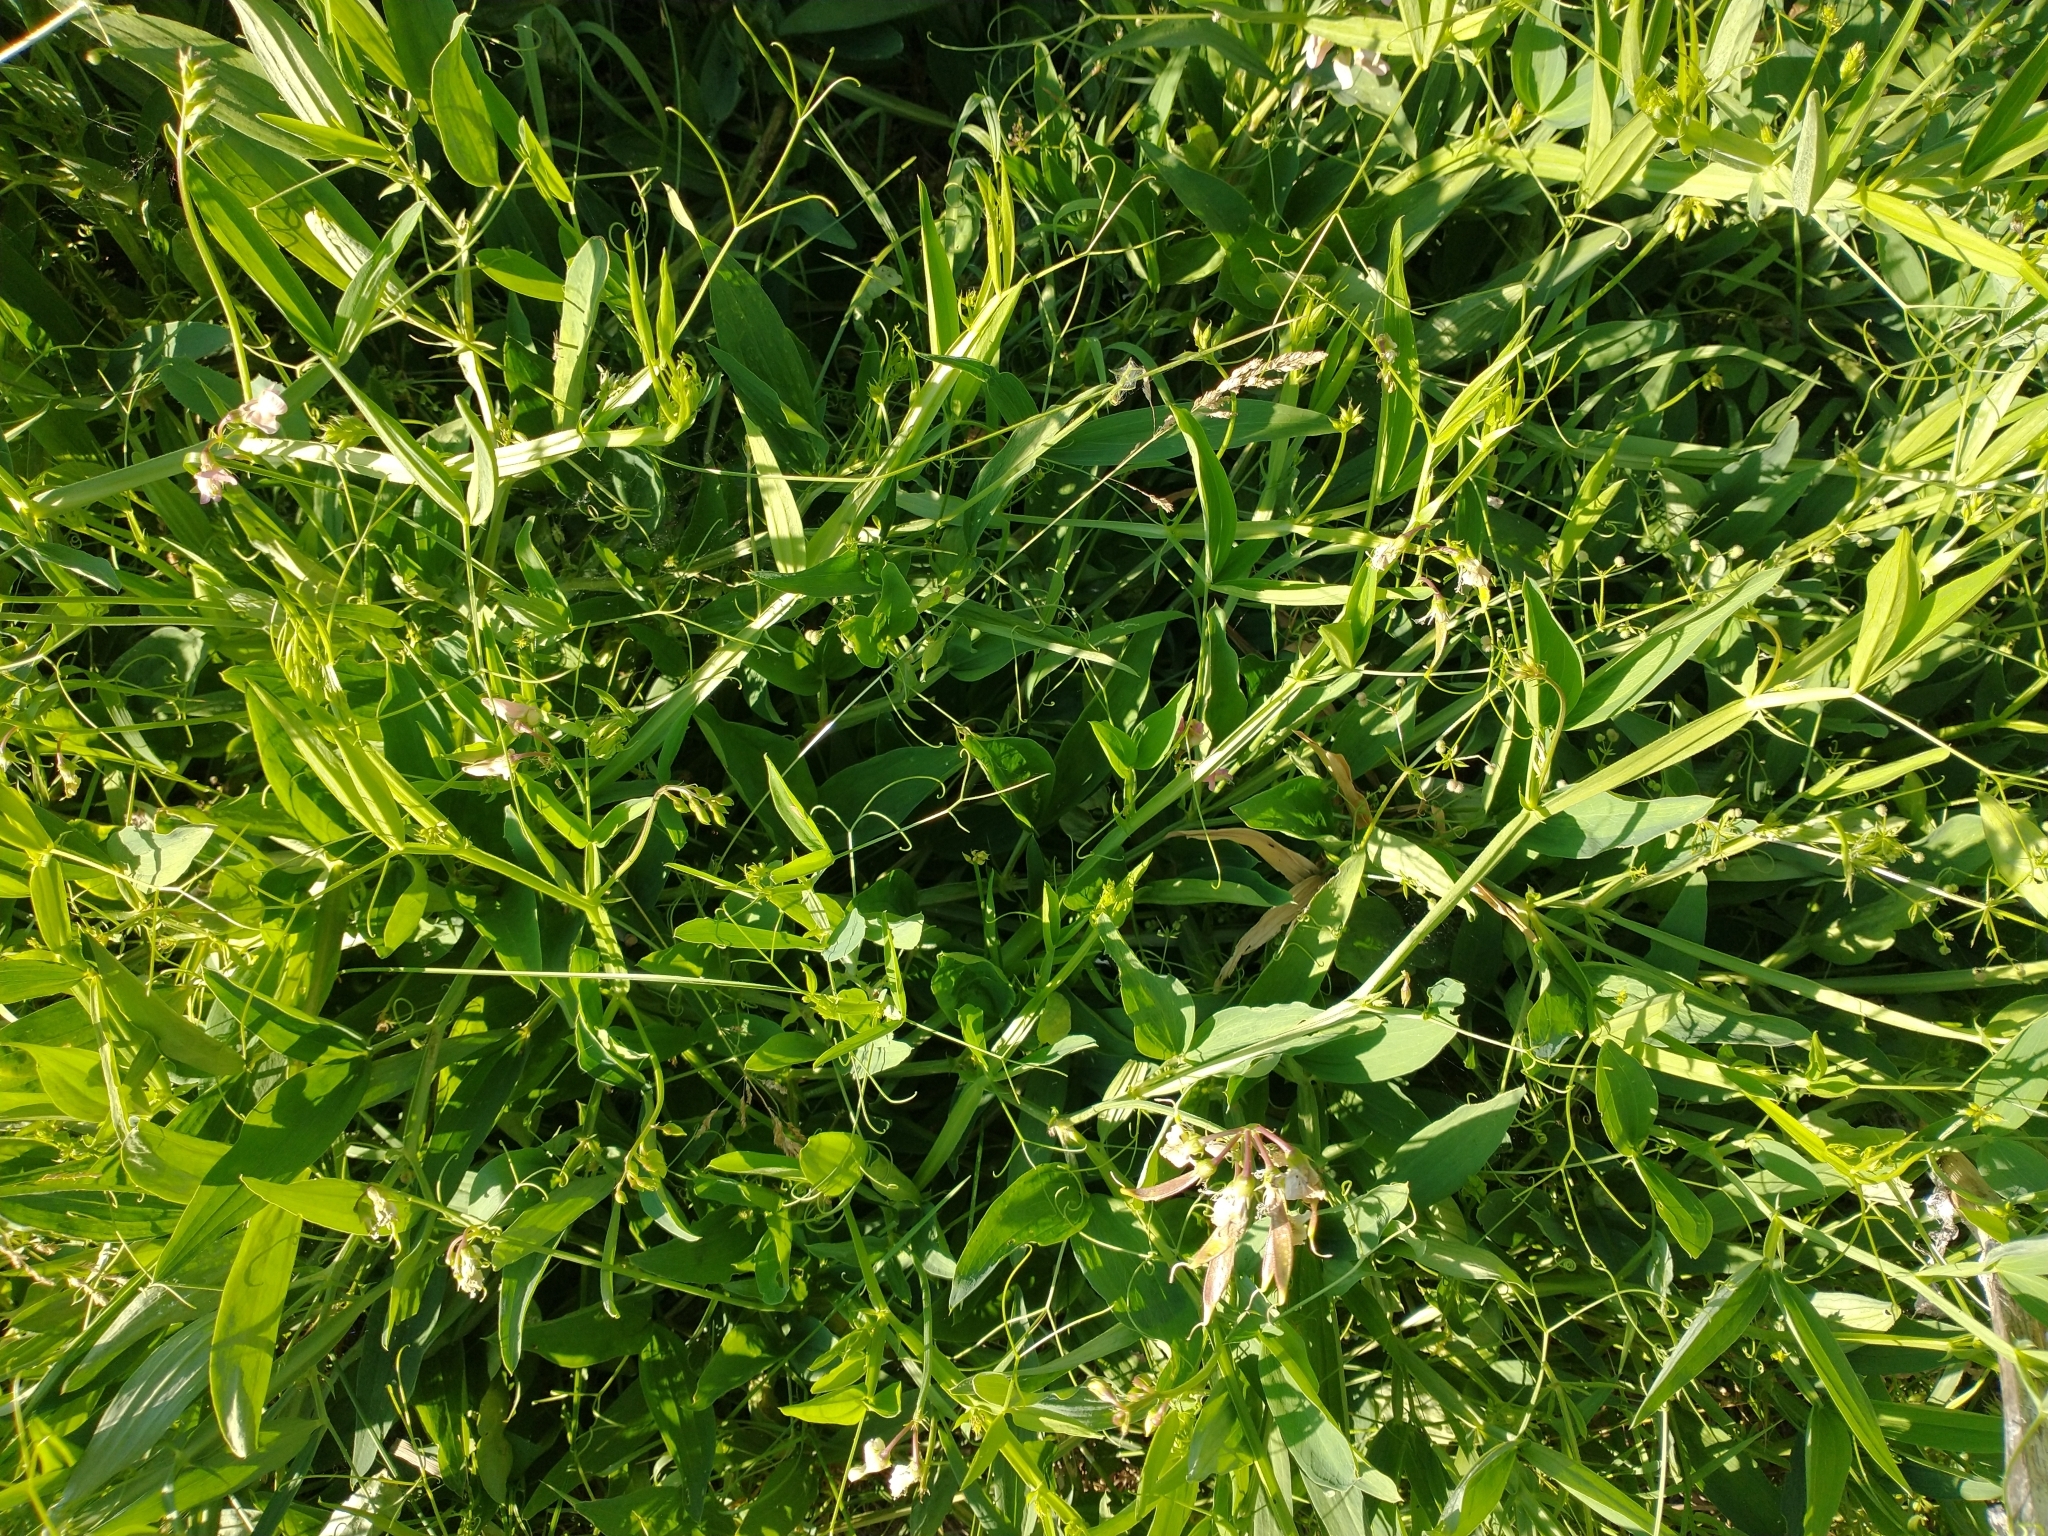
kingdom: Plantae
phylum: Tracheophyta
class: Magnoliopsida
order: Fabales
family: Fabaceae
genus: Lathyrus
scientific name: Lathyrus sylvestris
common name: Flat pea
